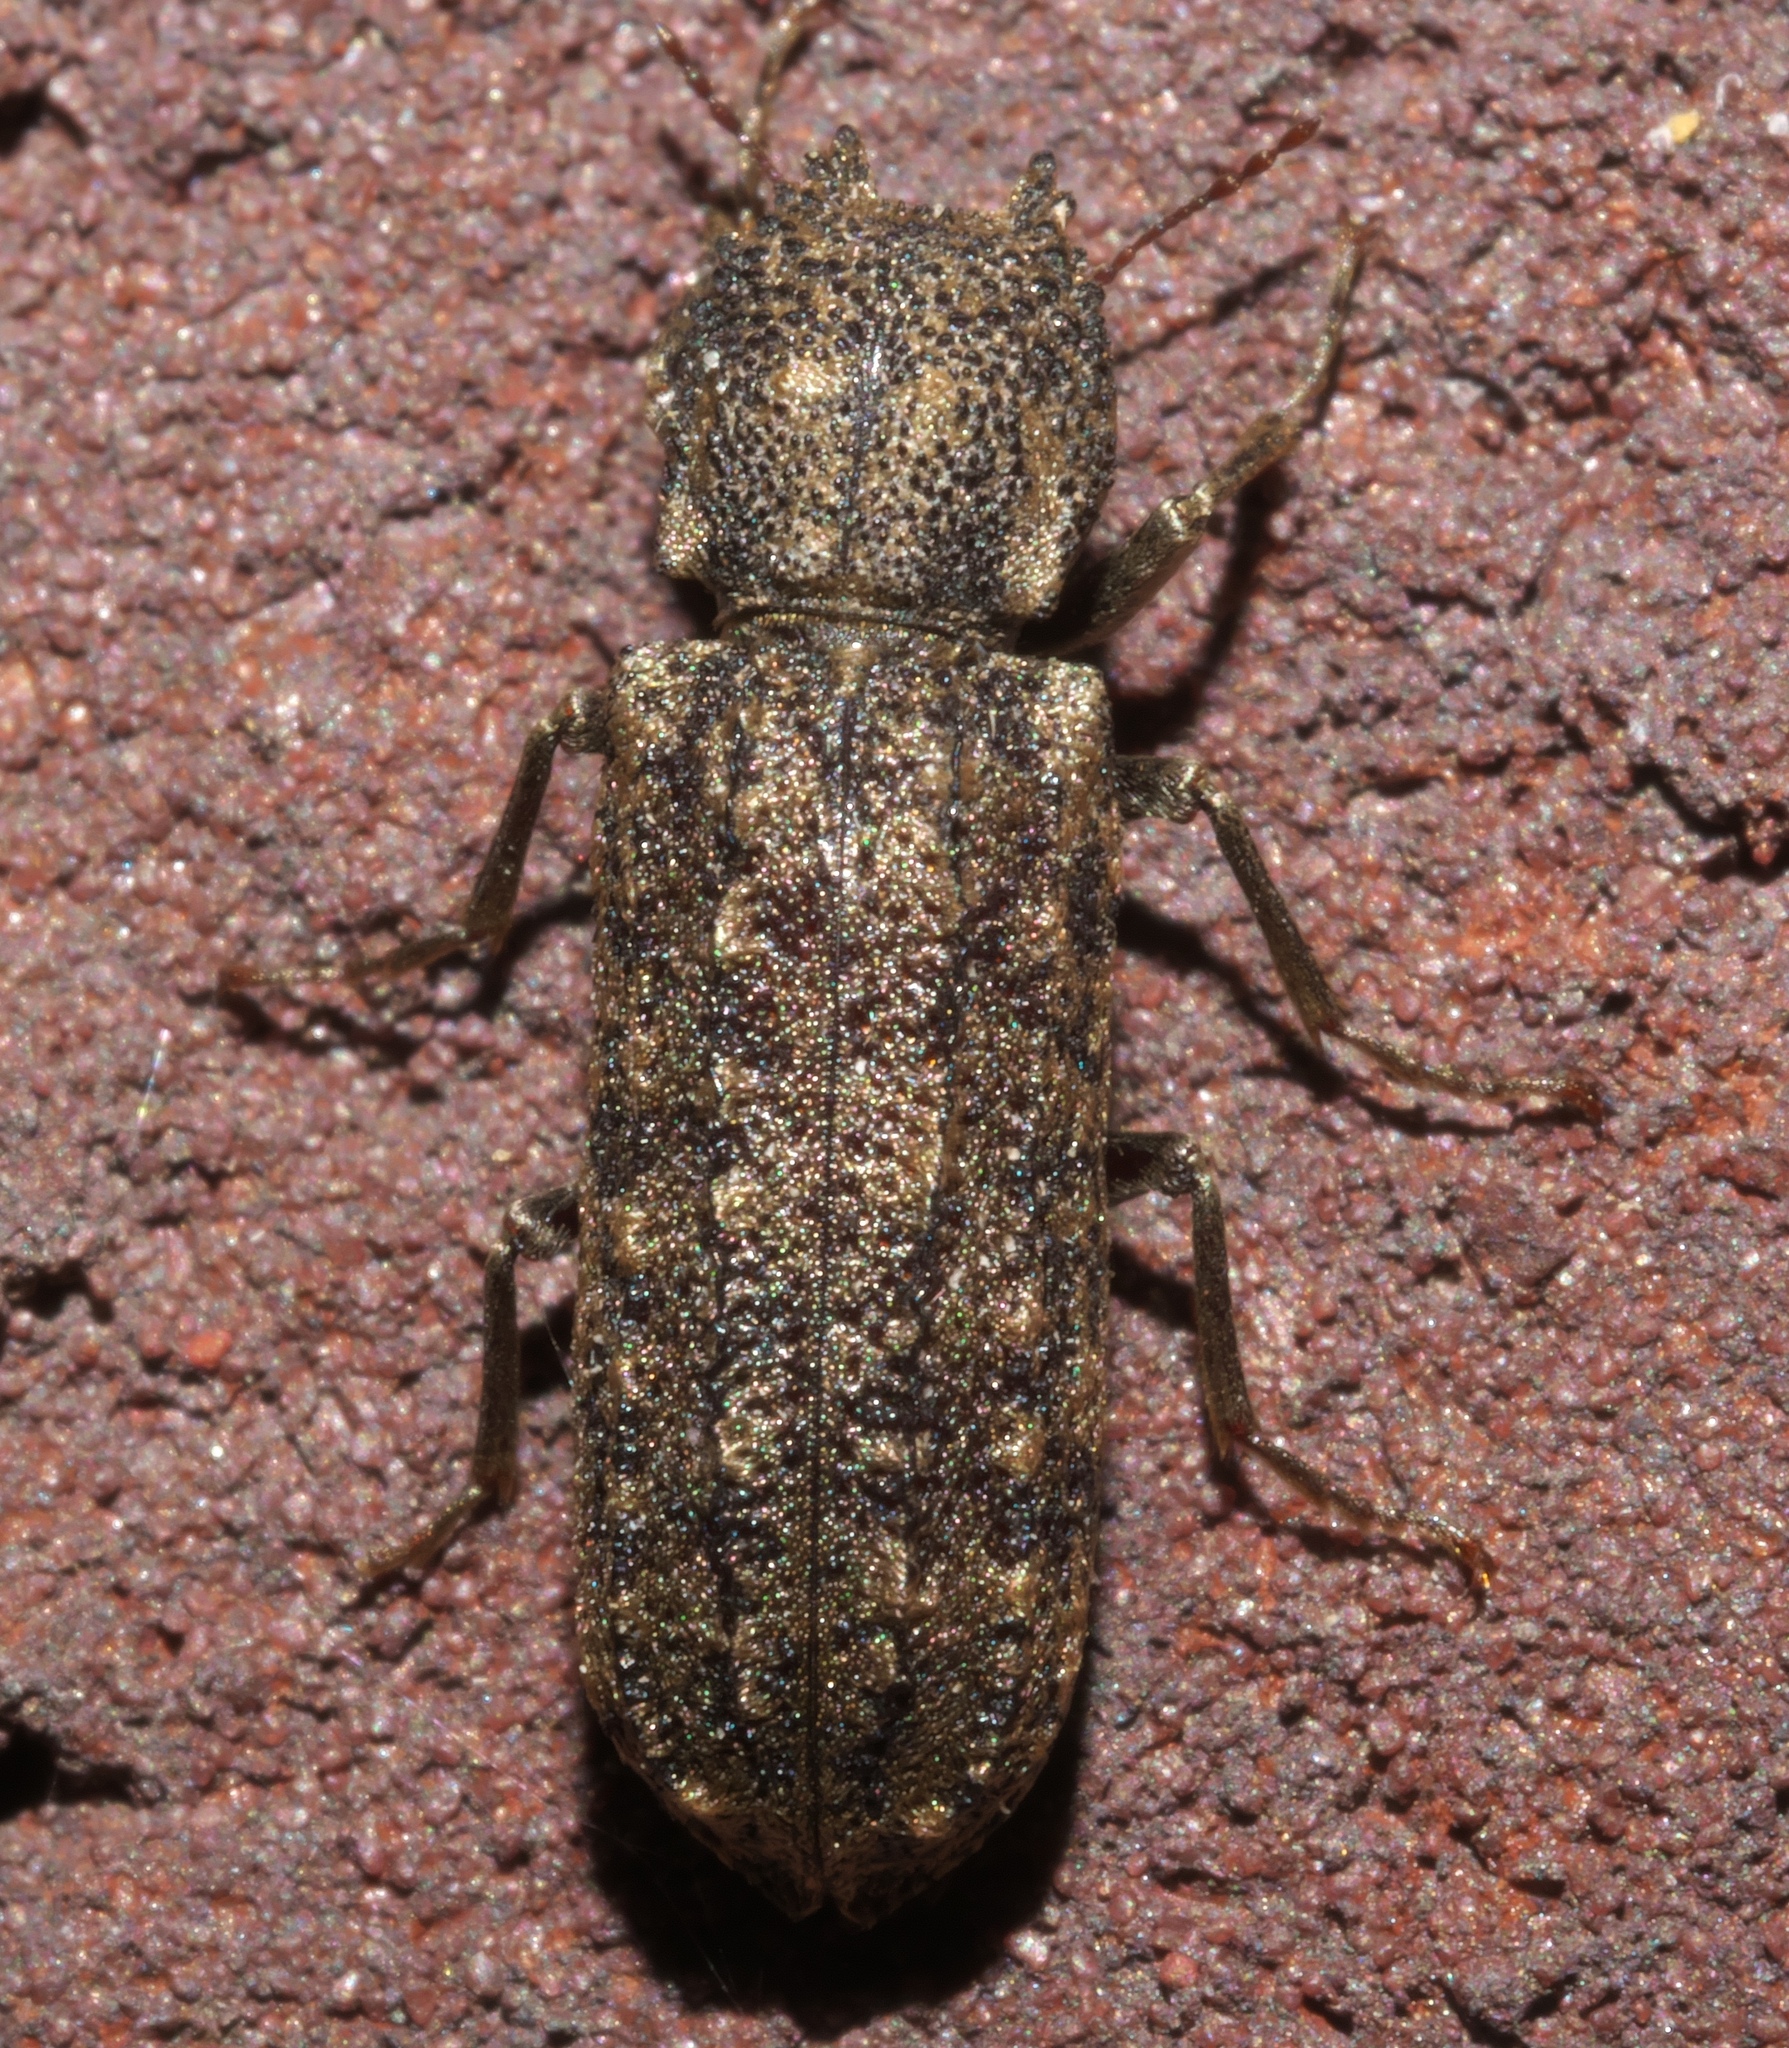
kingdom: Animalia
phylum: Arthropoda
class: Insecta
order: Coleoptera
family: Bostrichidae
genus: Lichenophanes
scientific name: Lichenophanes bicornis
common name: Two-horned powder-post beetle
